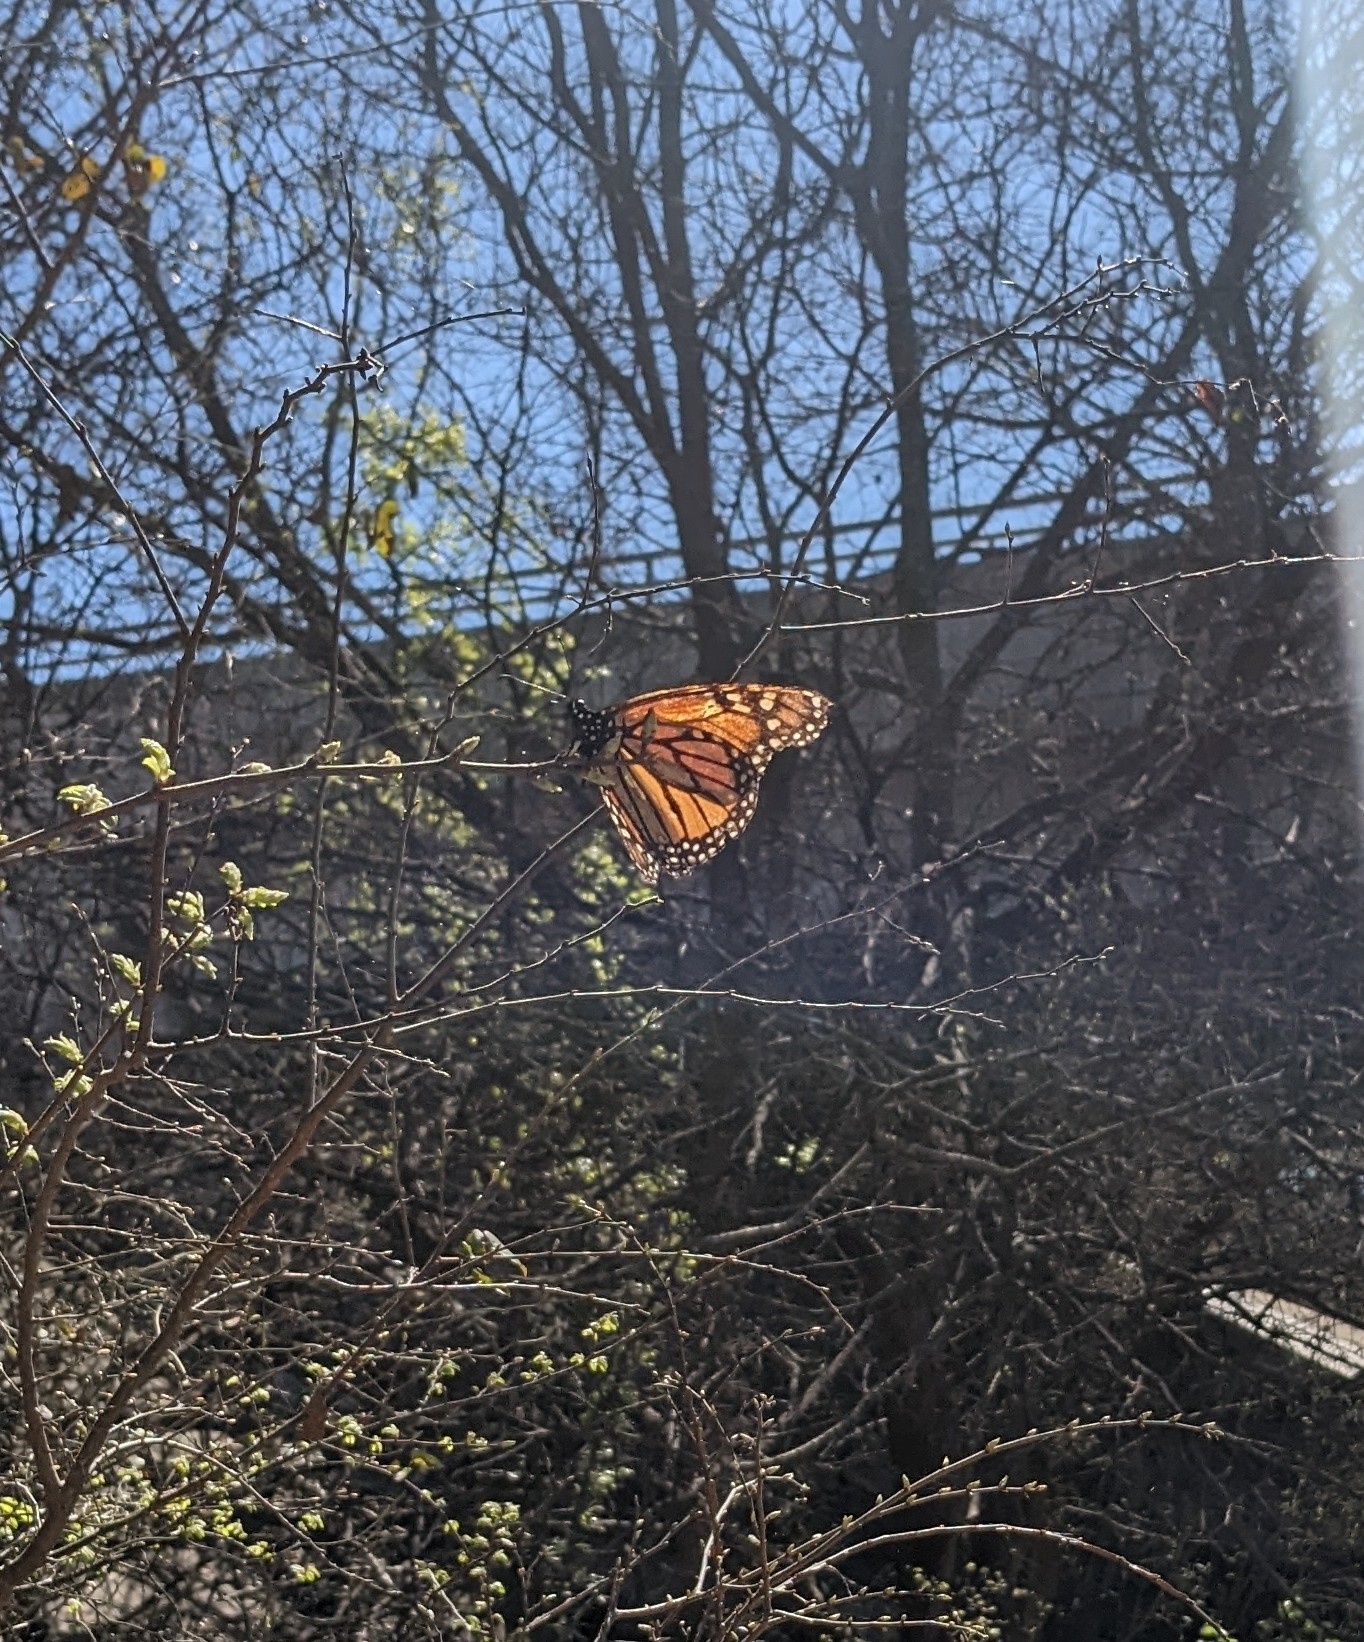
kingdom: Animalia
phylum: Arthropoda
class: Insecta
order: Lepidoptera
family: Nymphalidae
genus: Danaus
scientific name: Danaus plexippus
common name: Monarch
